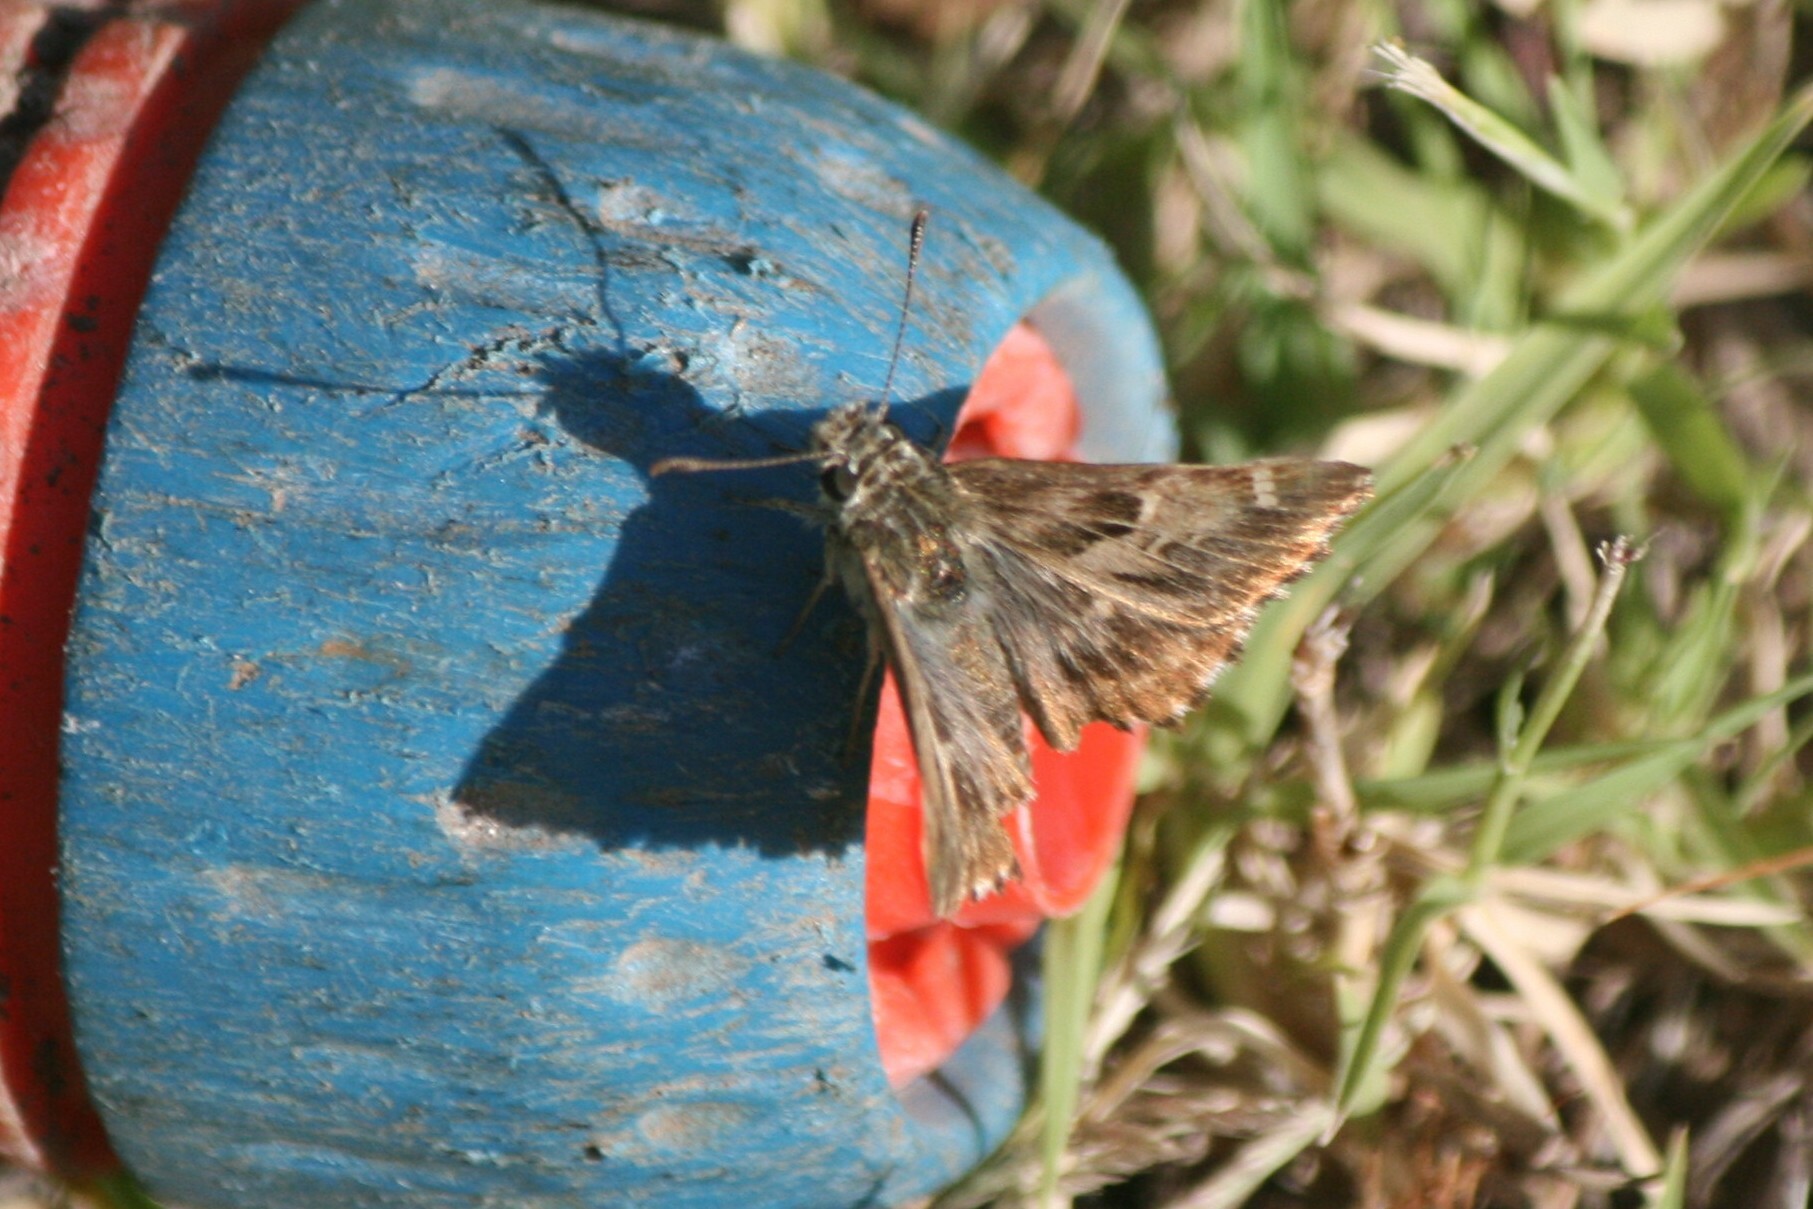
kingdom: Animalia
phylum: Arthropoda
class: Insecta
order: Lepidoptera
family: Hesperiidae
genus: Carcharodus
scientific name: Carcharodus alceae
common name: Mallow skipper
